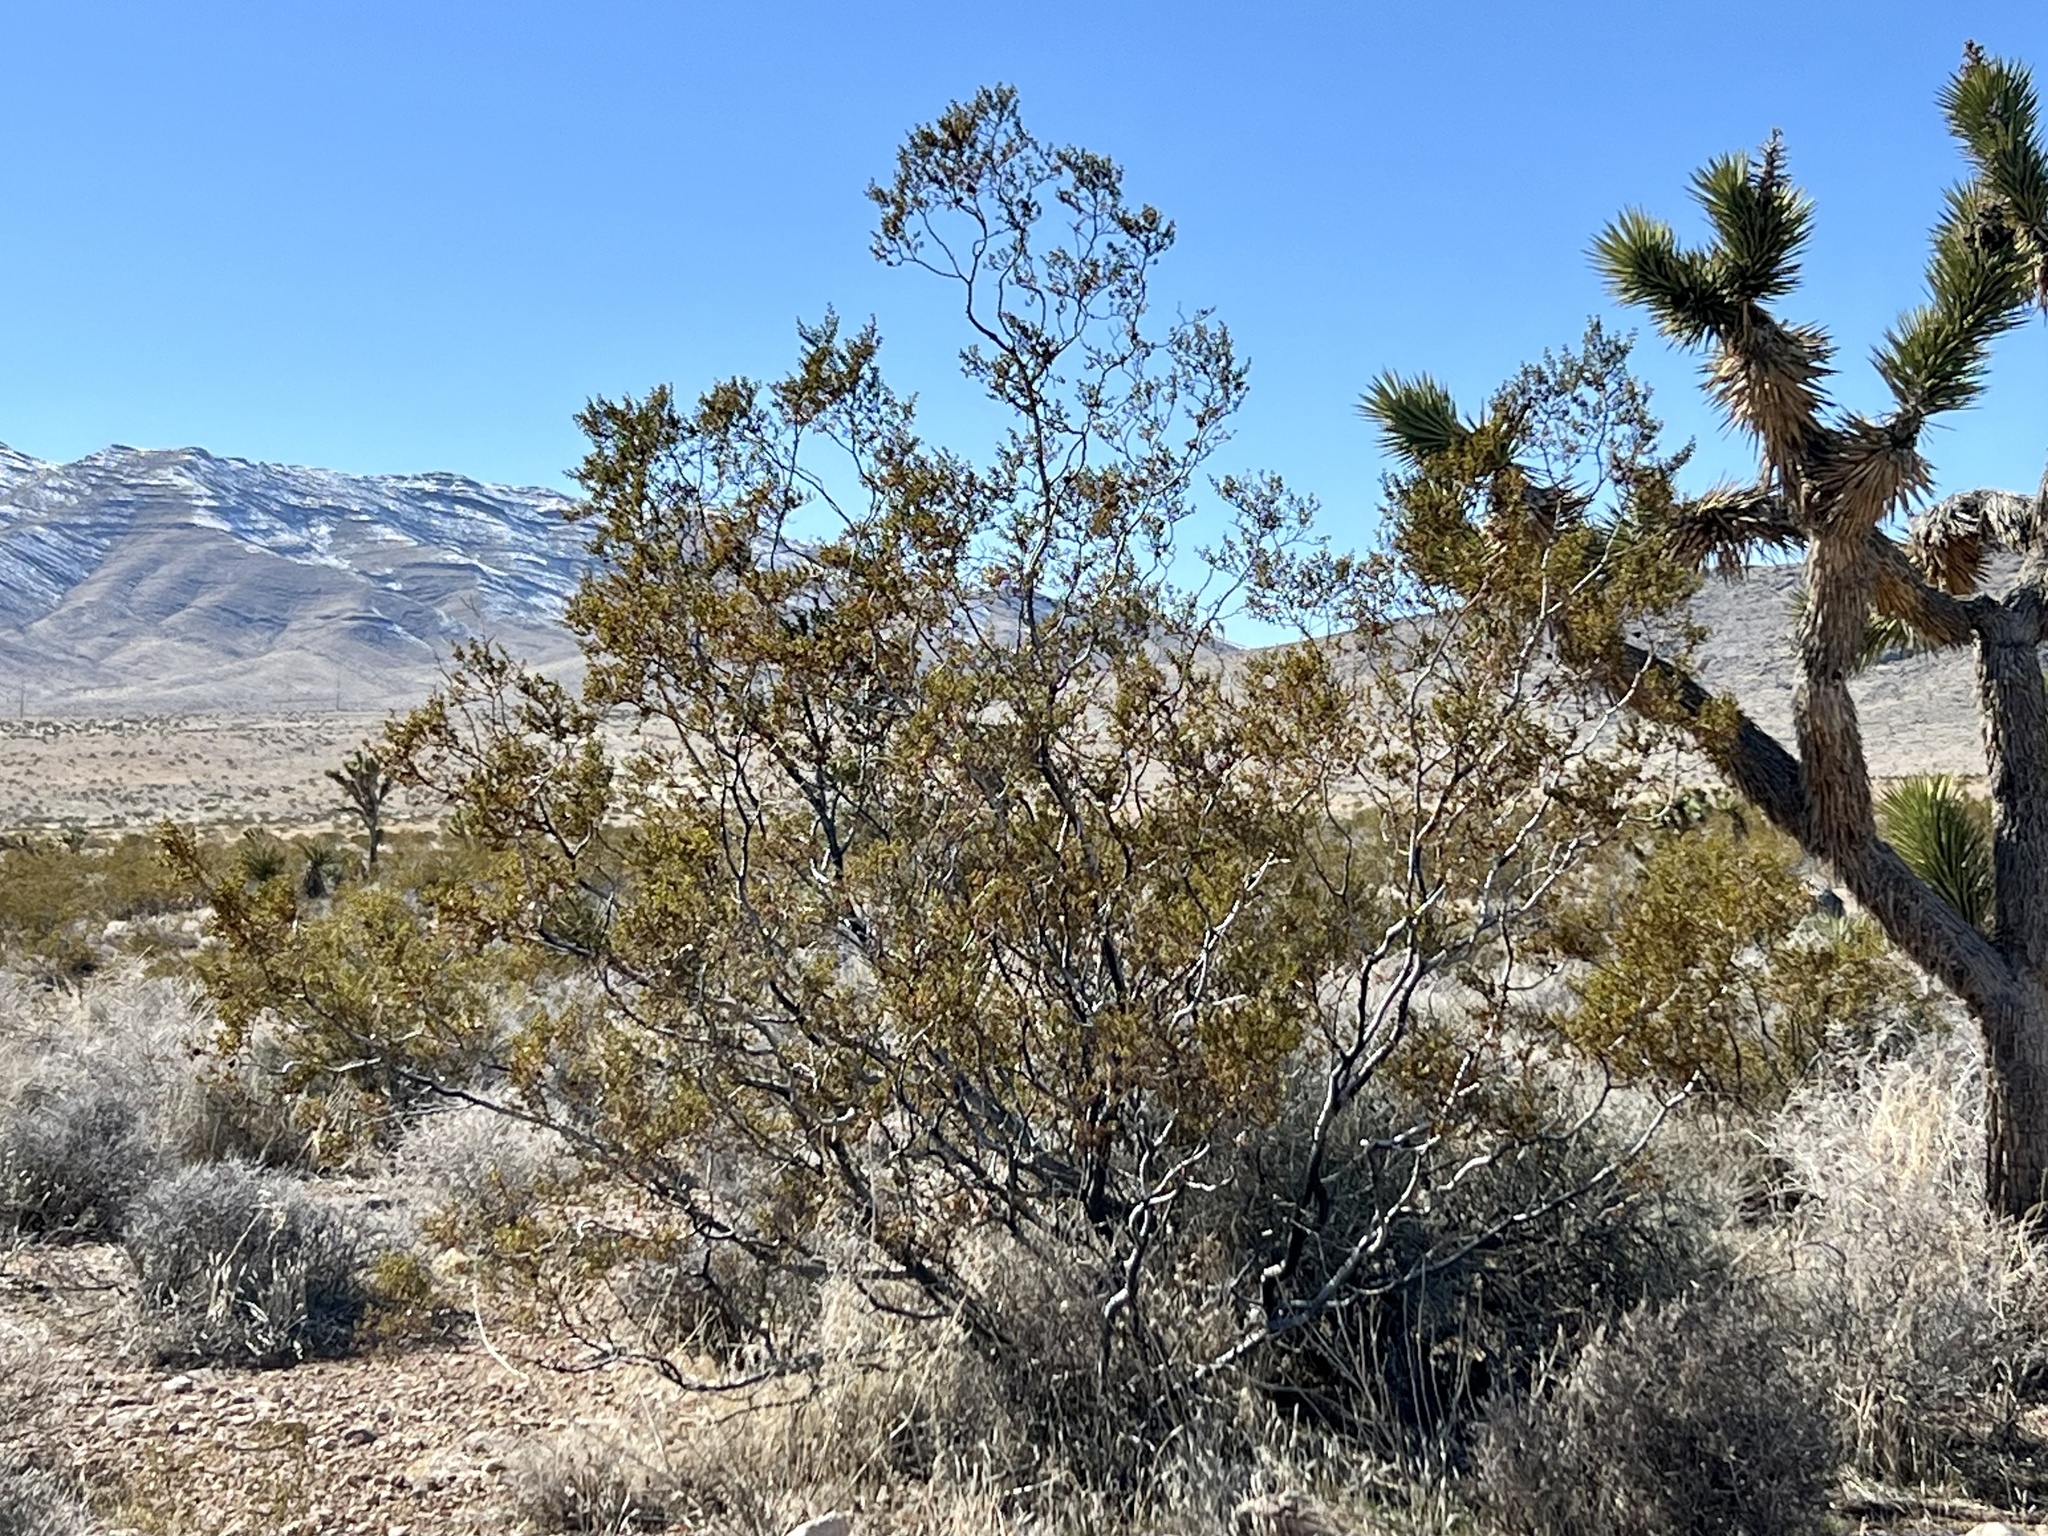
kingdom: Plantae
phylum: Tracheophyta
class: Magnoliopsida
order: Zygophyllales
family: Zygophyllaceae
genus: Larrea
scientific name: Larrea tridentata
